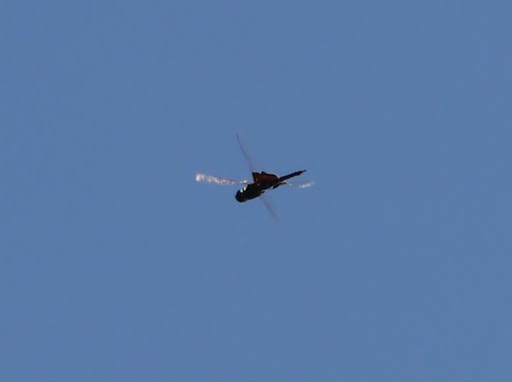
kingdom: Animalia
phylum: Arthropoda
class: Insecta
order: Odonata
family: Libellulidae
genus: Tramea
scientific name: Tramea lacerata
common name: Black saddlebags
